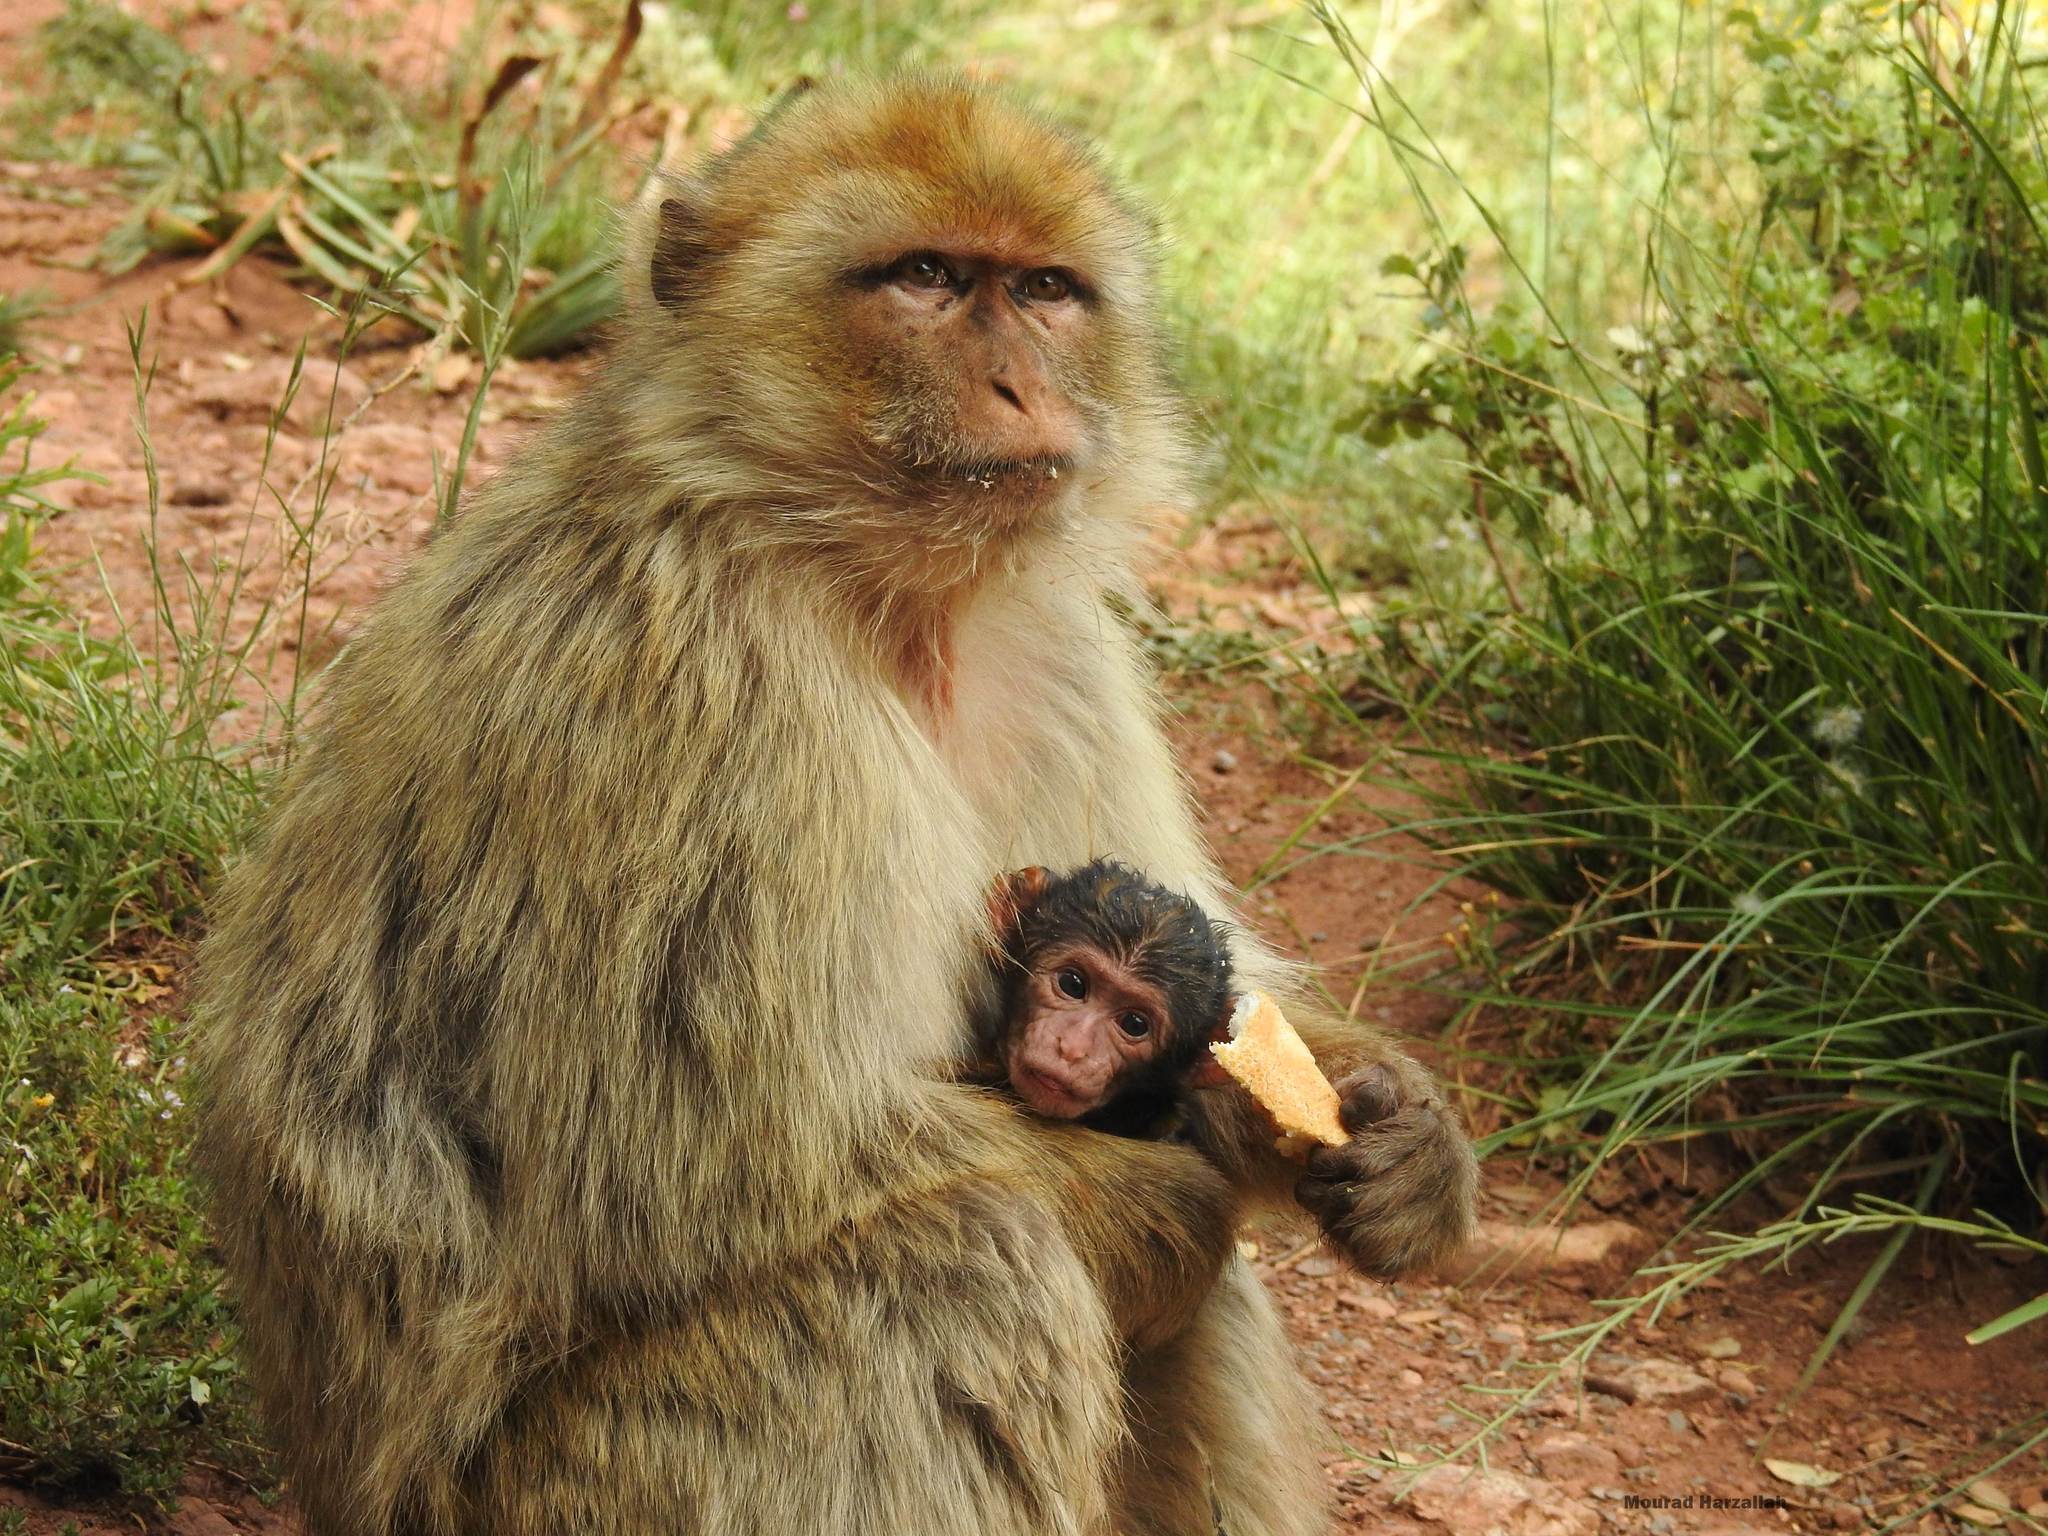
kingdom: Animalia
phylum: Chordata
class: Mammalia
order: Primates
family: Cercopithecidae
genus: Macaca
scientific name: Macaca sylvanus
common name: Barbary macaque
